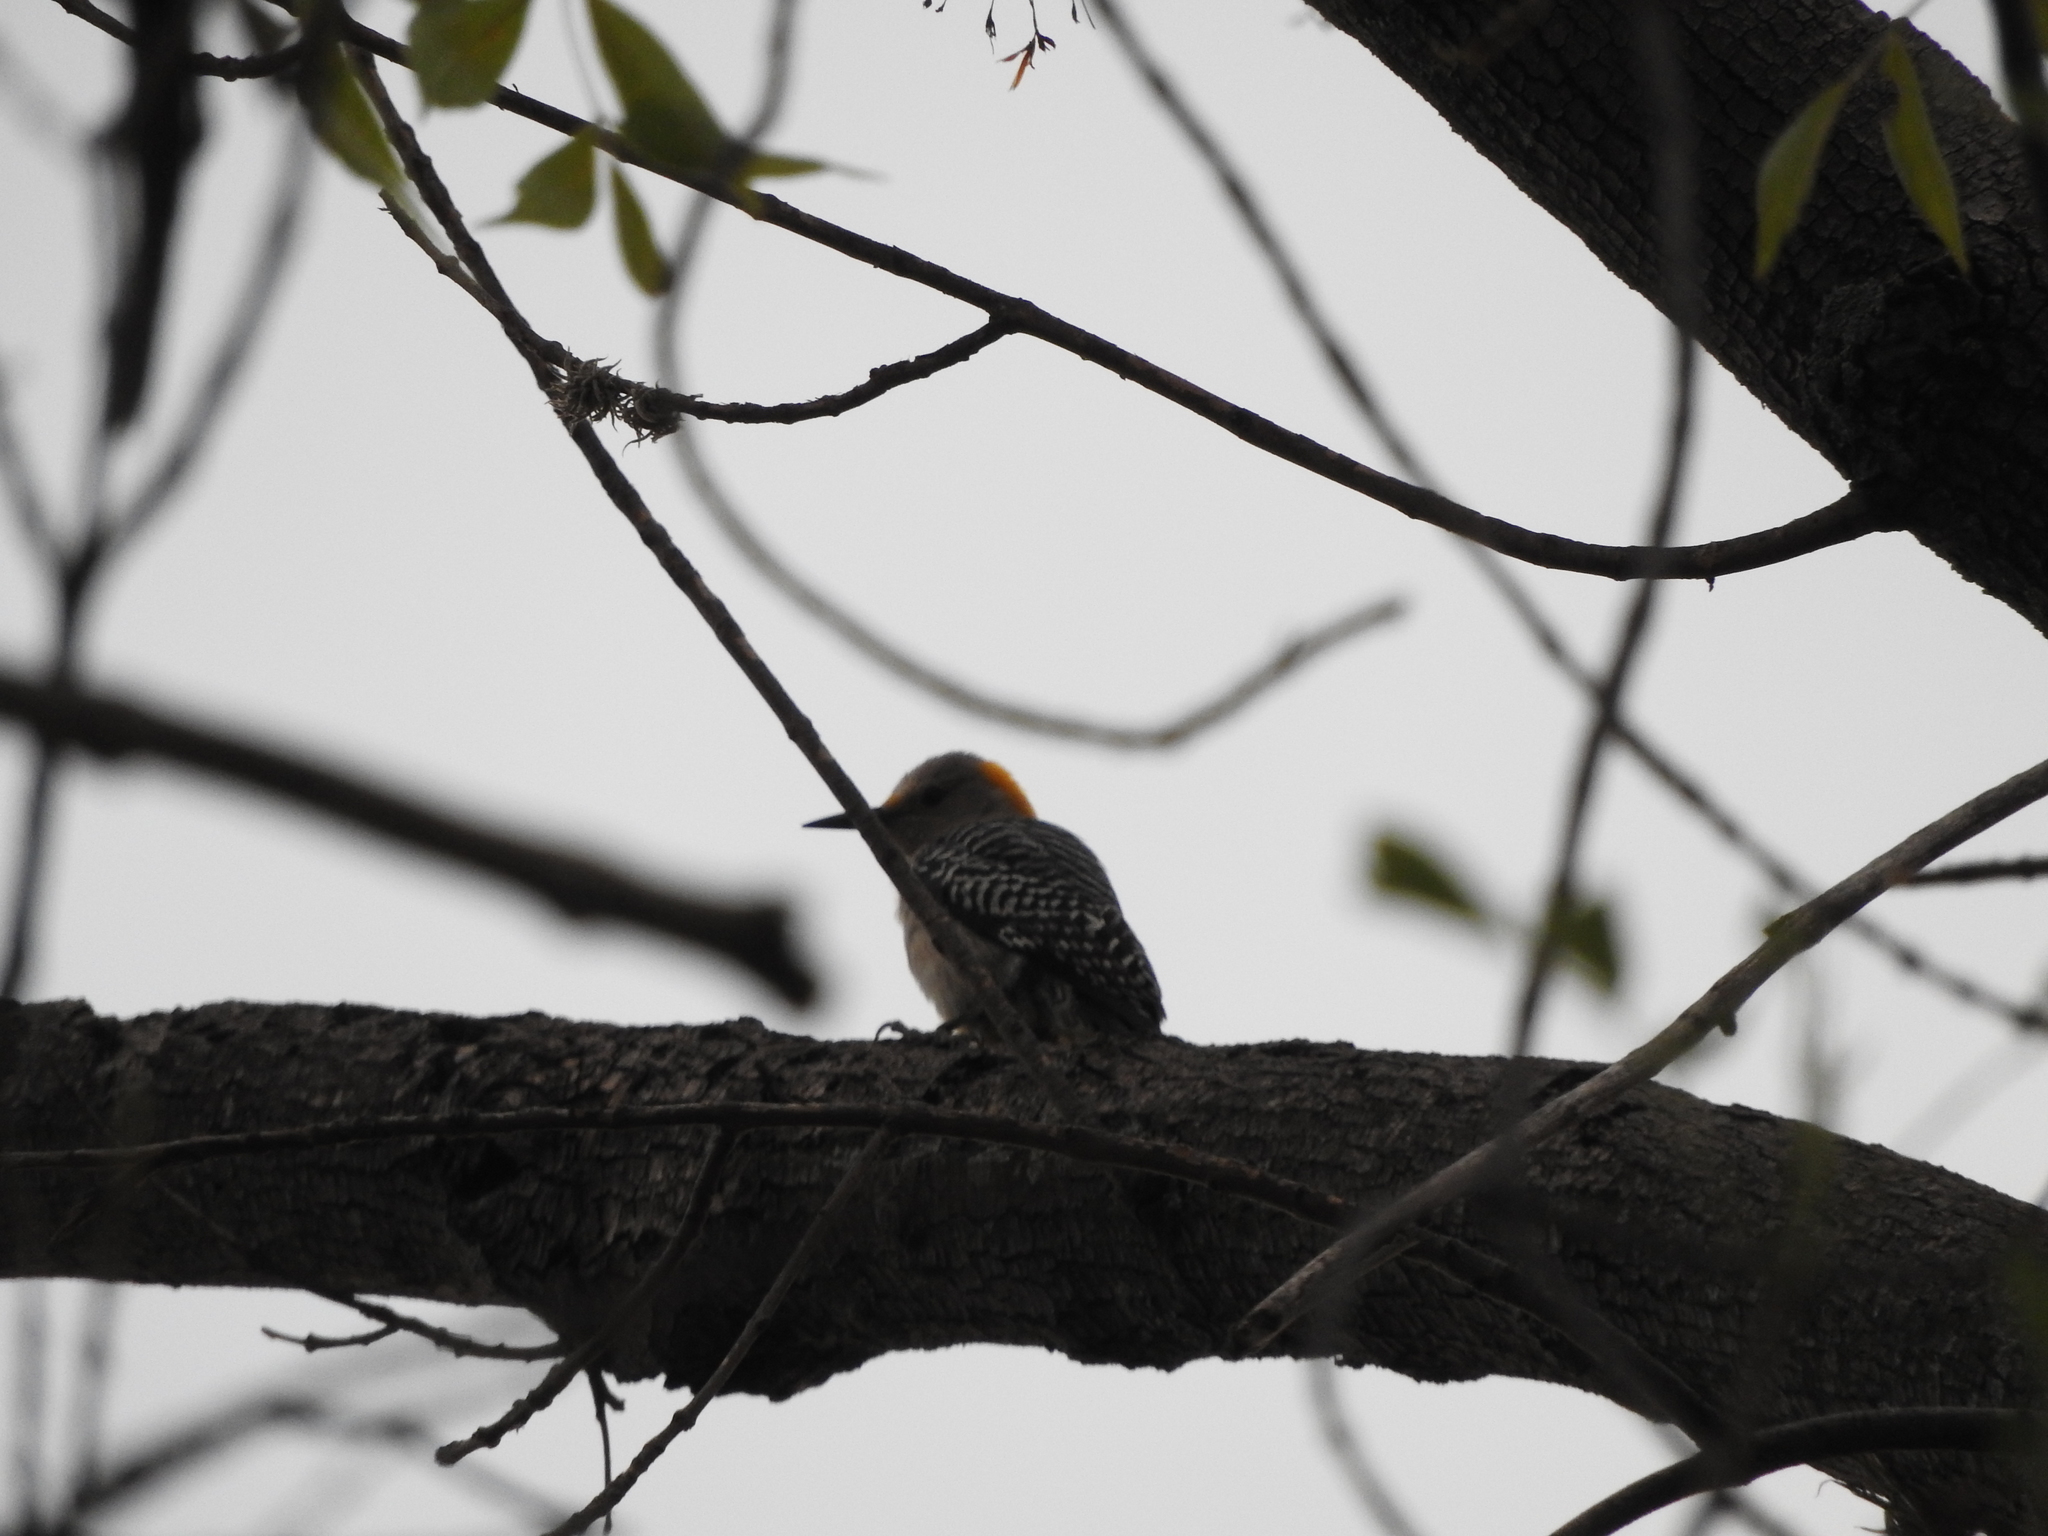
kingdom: Animalia
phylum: Chordata
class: Aves
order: Piciformes
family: Picidae
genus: Melanerpes
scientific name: Melanerpes aurifrons
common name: Golden-fronted woodpecker
